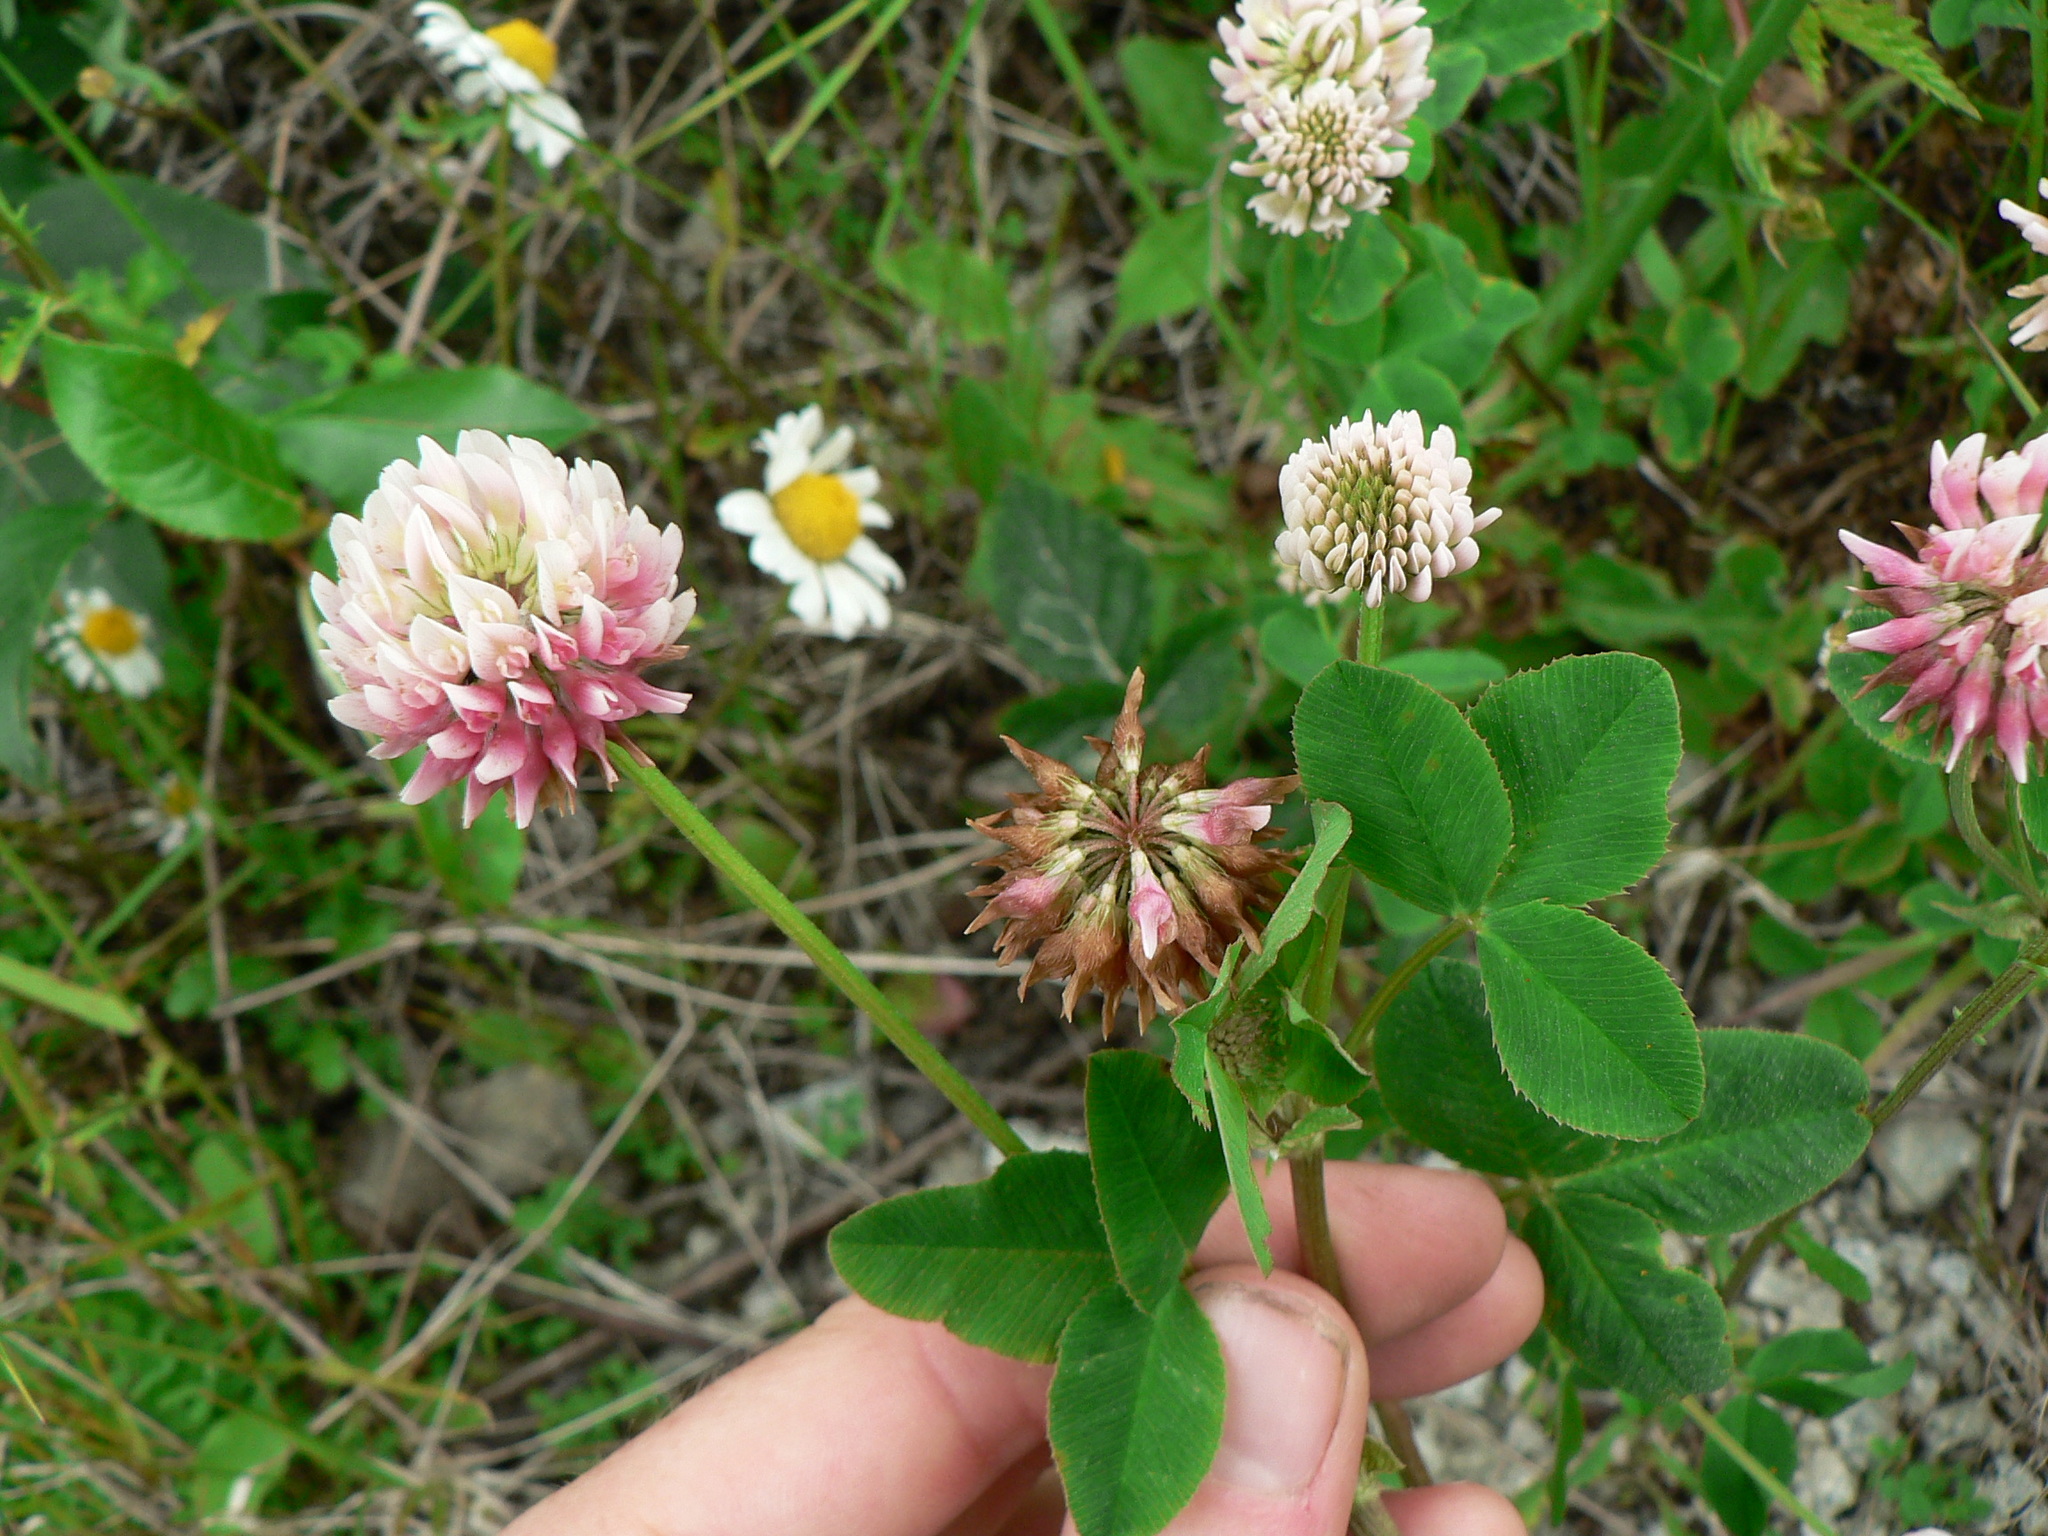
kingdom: Plantae
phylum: Tracheophyta
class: Magnoliopsida
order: Fabales
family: Fabaceae
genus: Trifolium
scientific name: Trifolium hybridum
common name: Alsike clover
